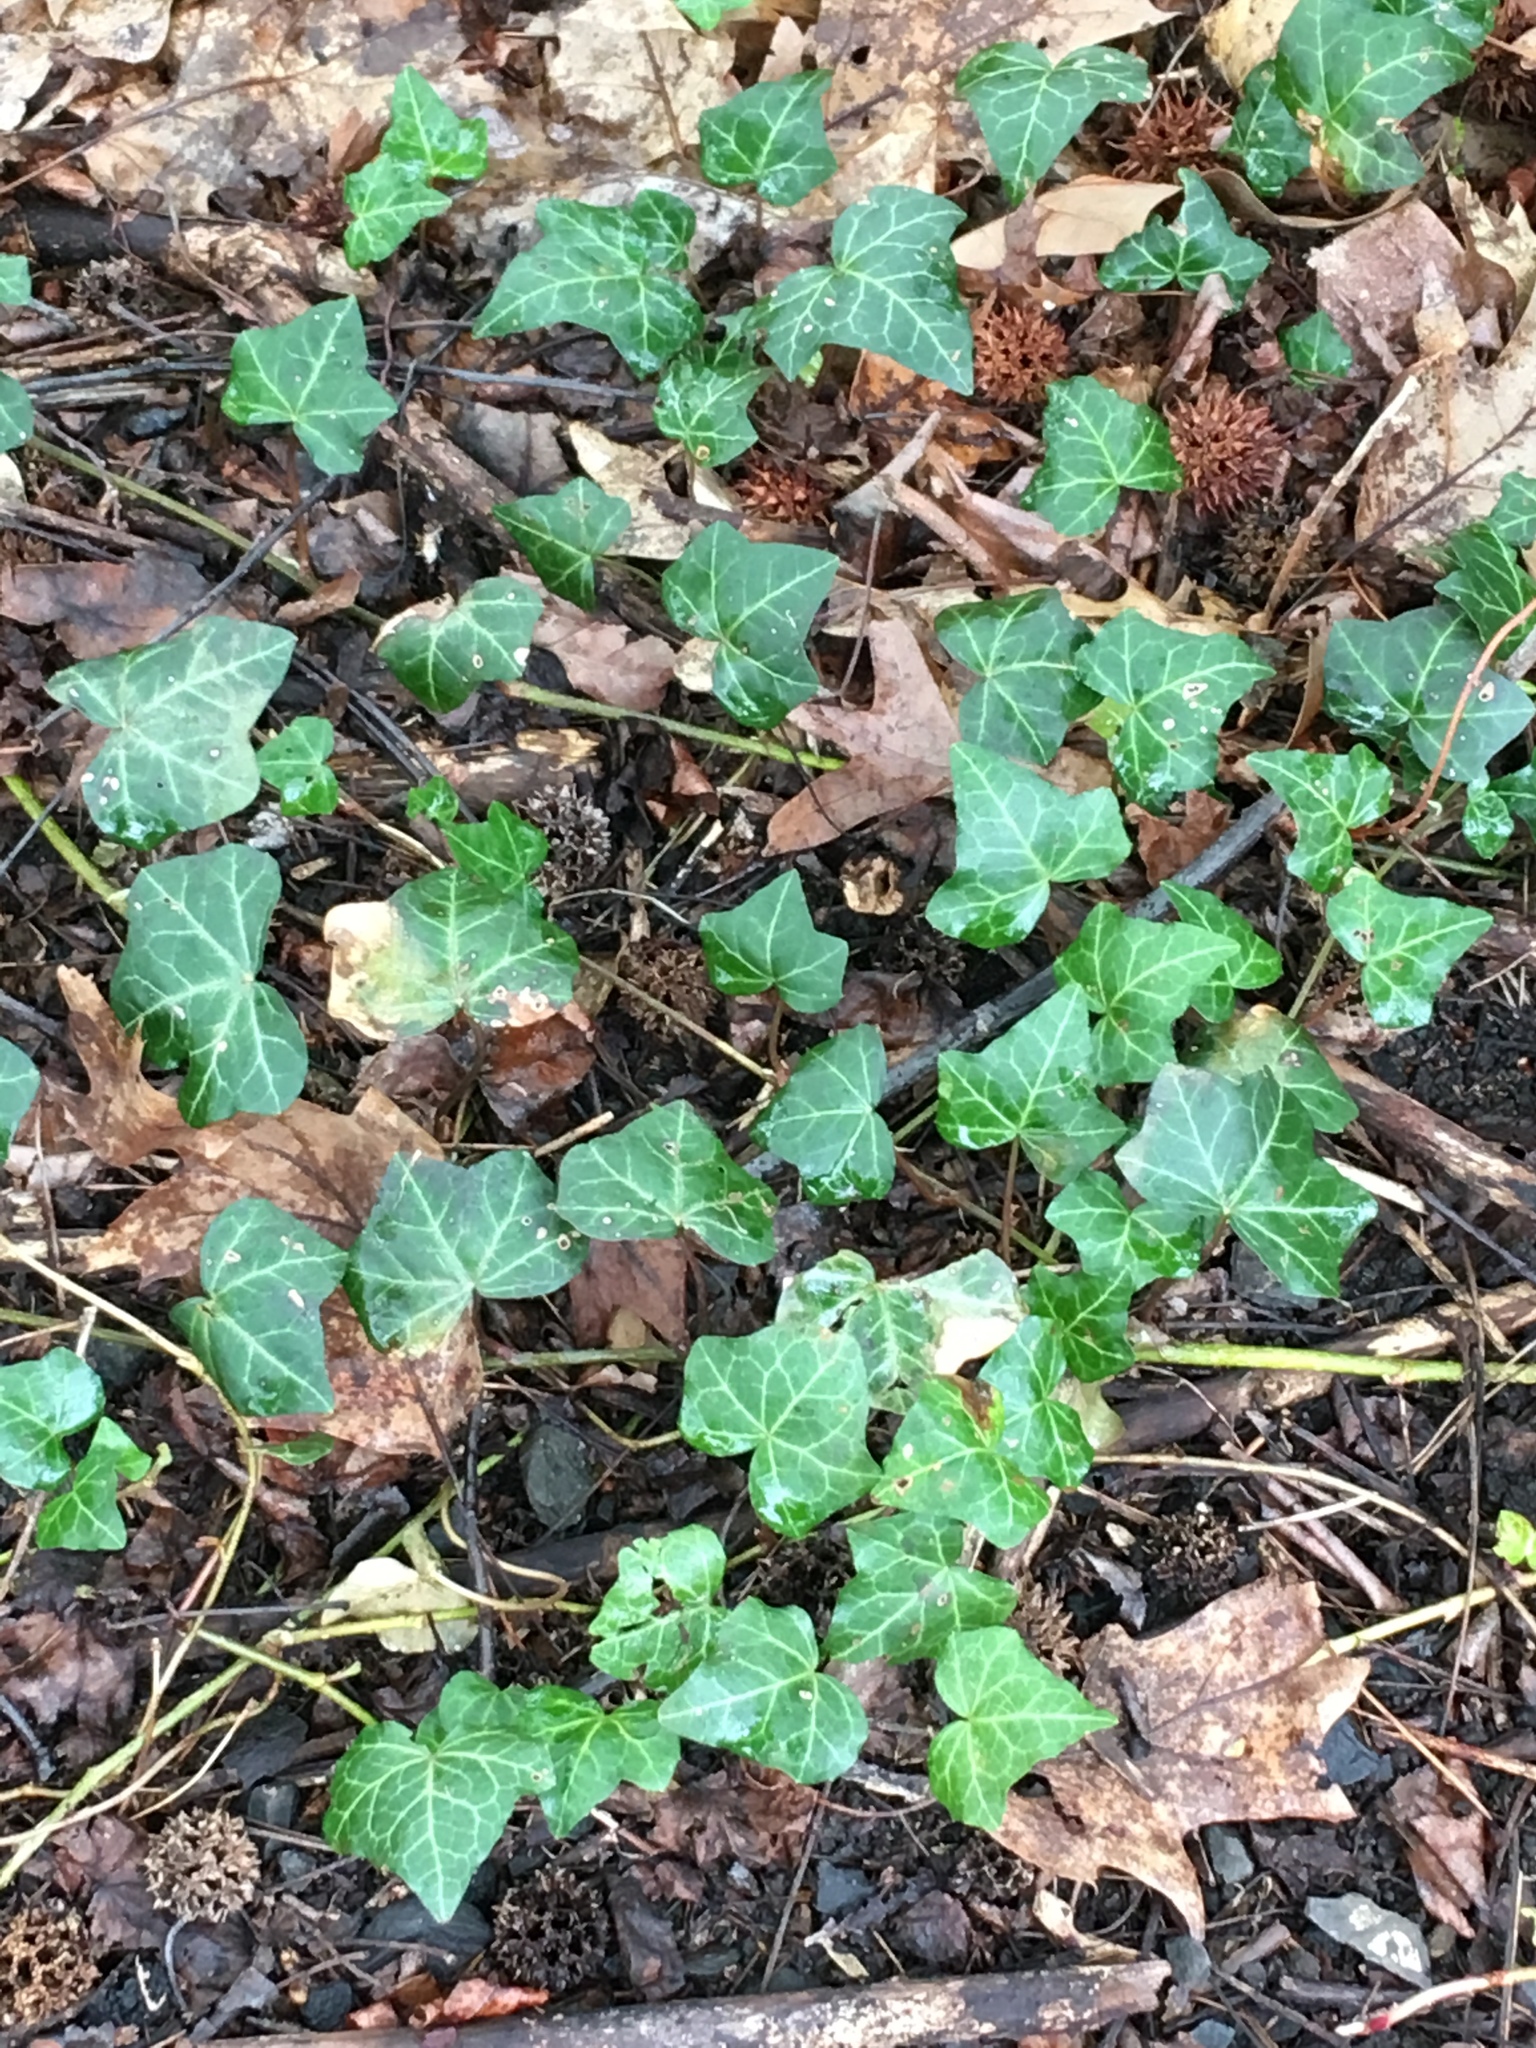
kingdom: Plantae
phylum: Tracheophyta
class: Magnoliopsida
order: Apiales
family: Araliaceae
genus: Hedera
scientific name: Hedera helix
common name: Ivy
